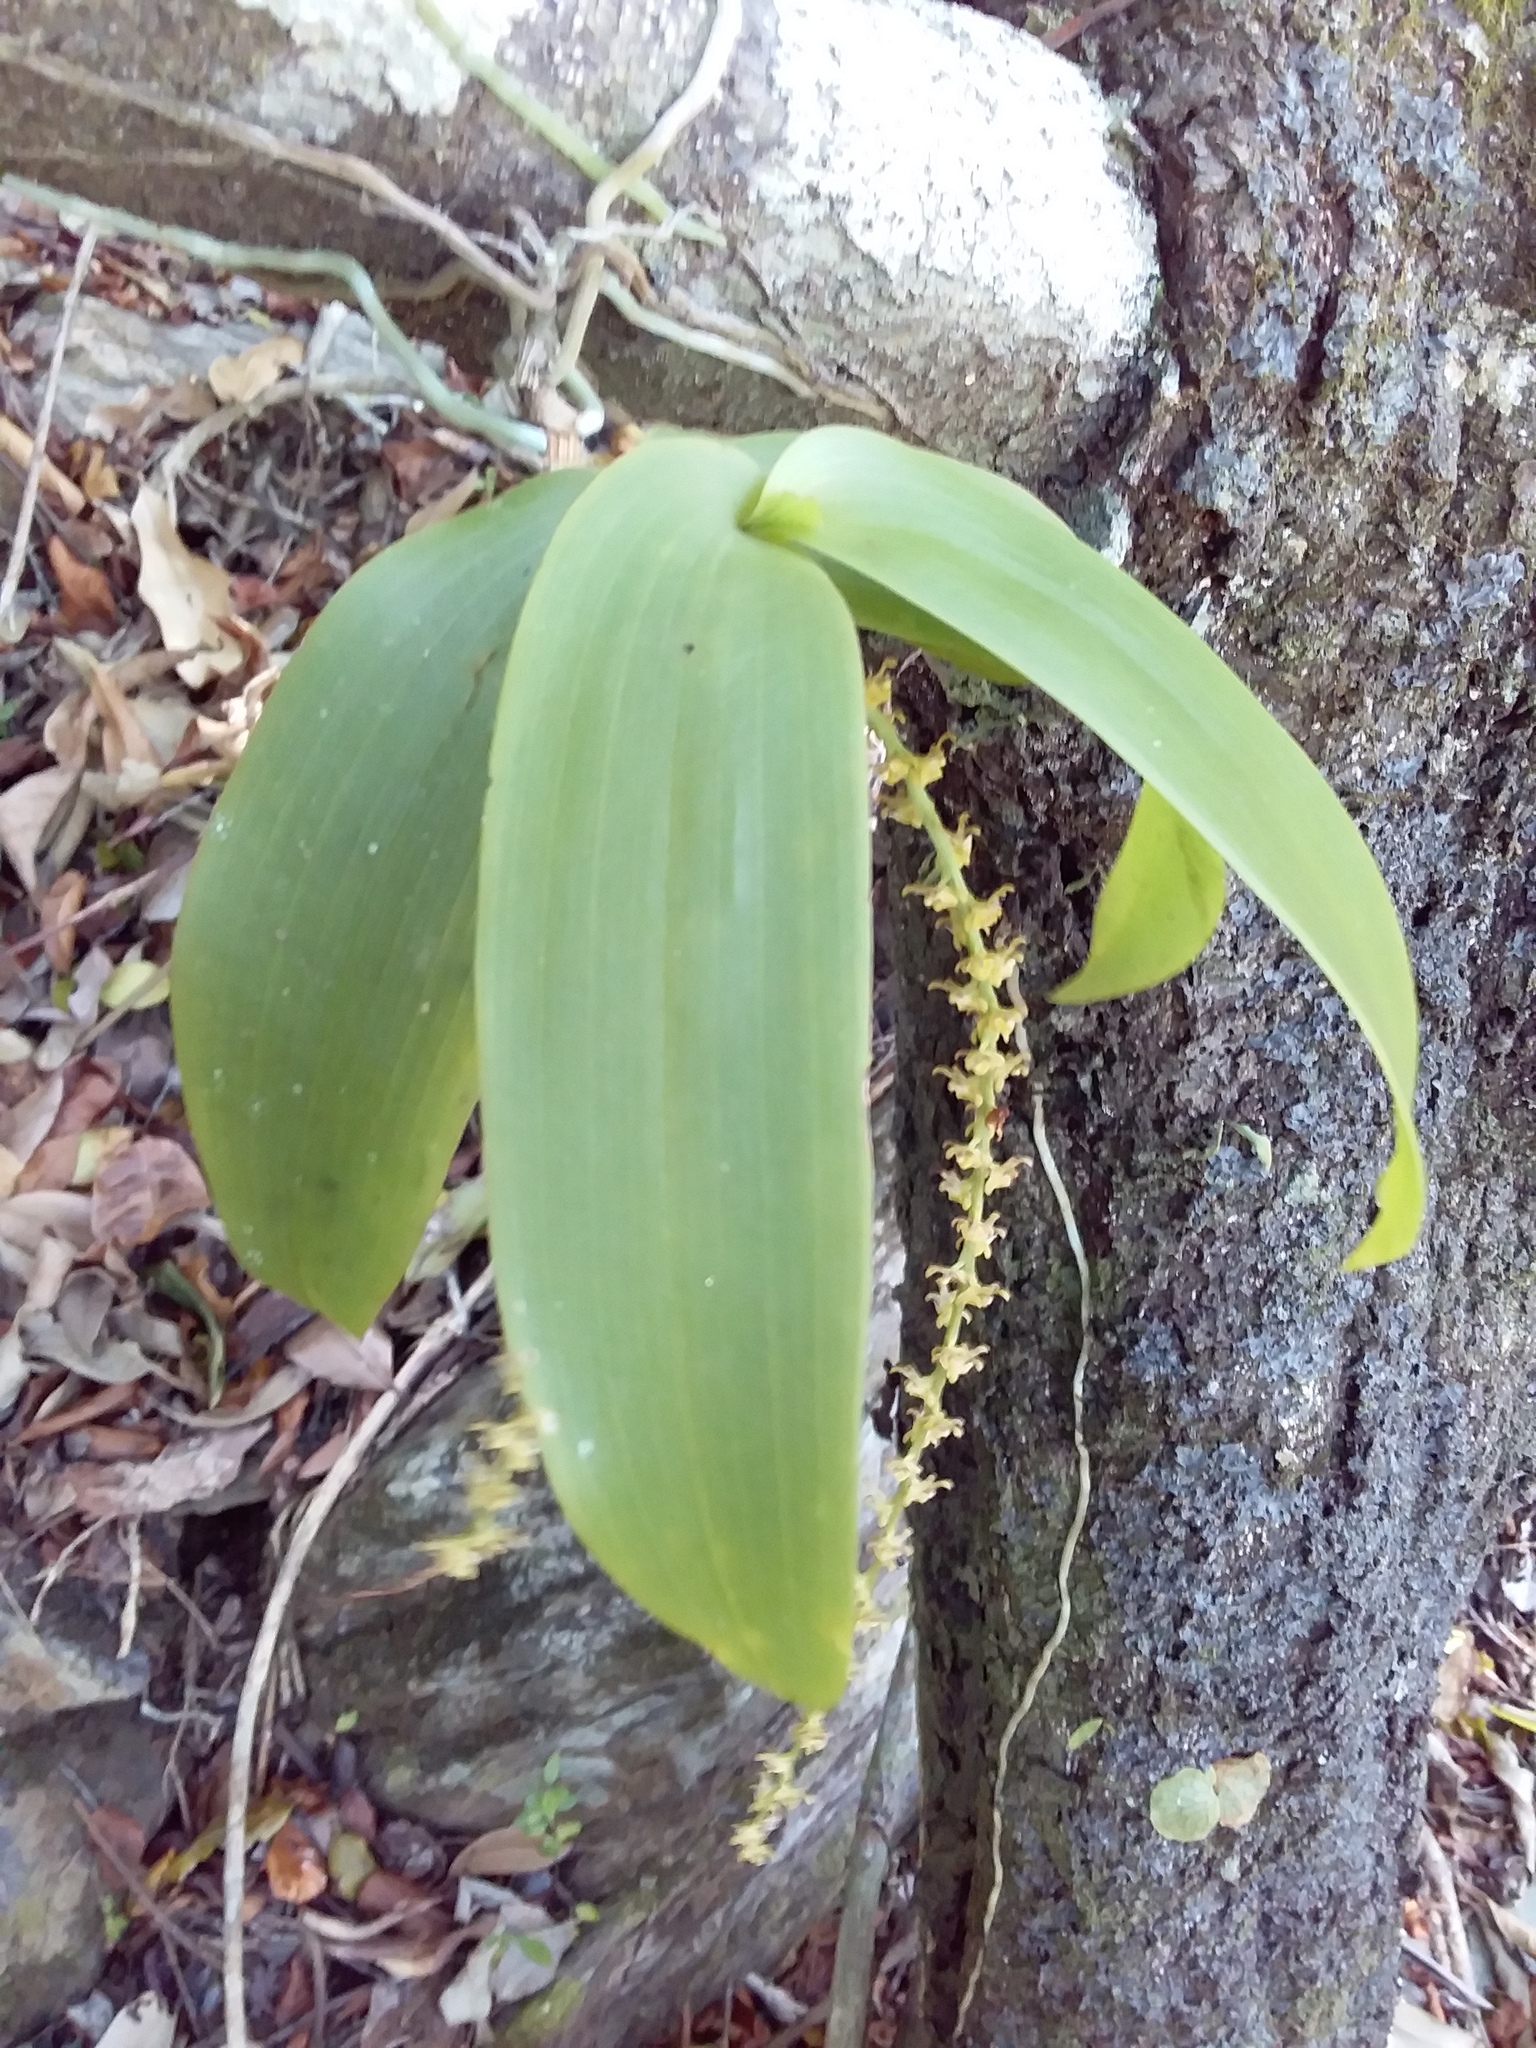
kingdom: Plantae
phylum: Tracheophyta
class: Liliopsida
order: Asparagales
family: Orchidaceae
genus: Peristeranthus
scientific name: Peristeranthus hillii
